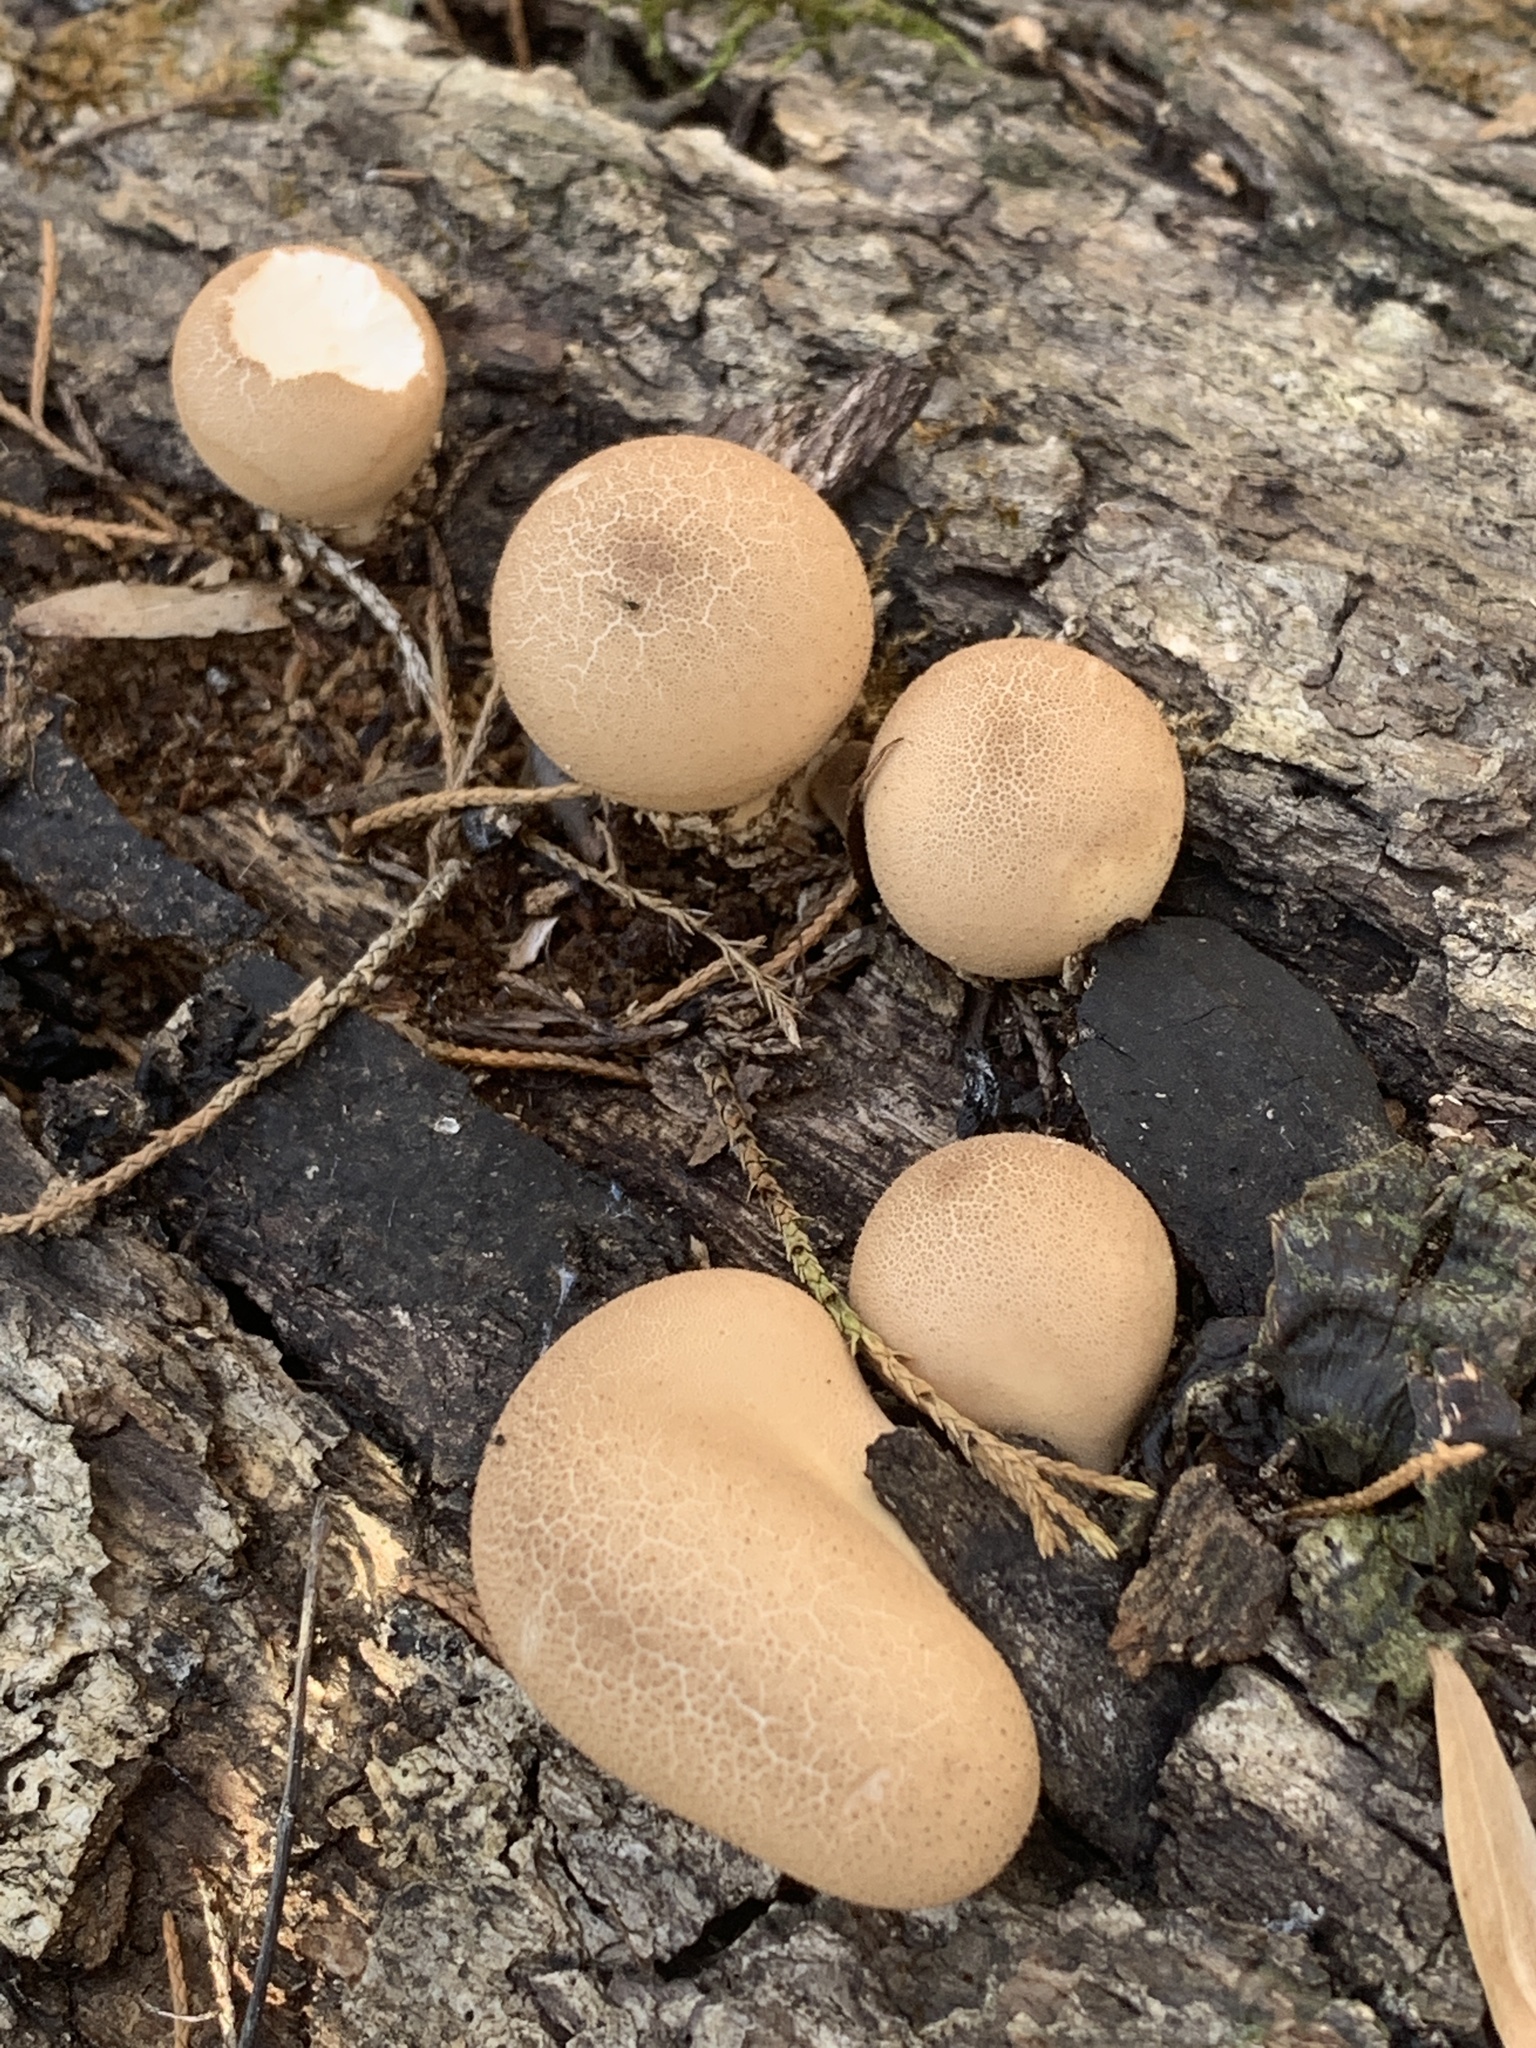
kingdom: Fungi
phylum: Basidiomycota
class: Agaricomycetes
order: Agaricales
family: Lycoperdaceae
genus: Apioperdon
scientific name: Apioperdon pyriforme
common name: Pear-shaped puffball
